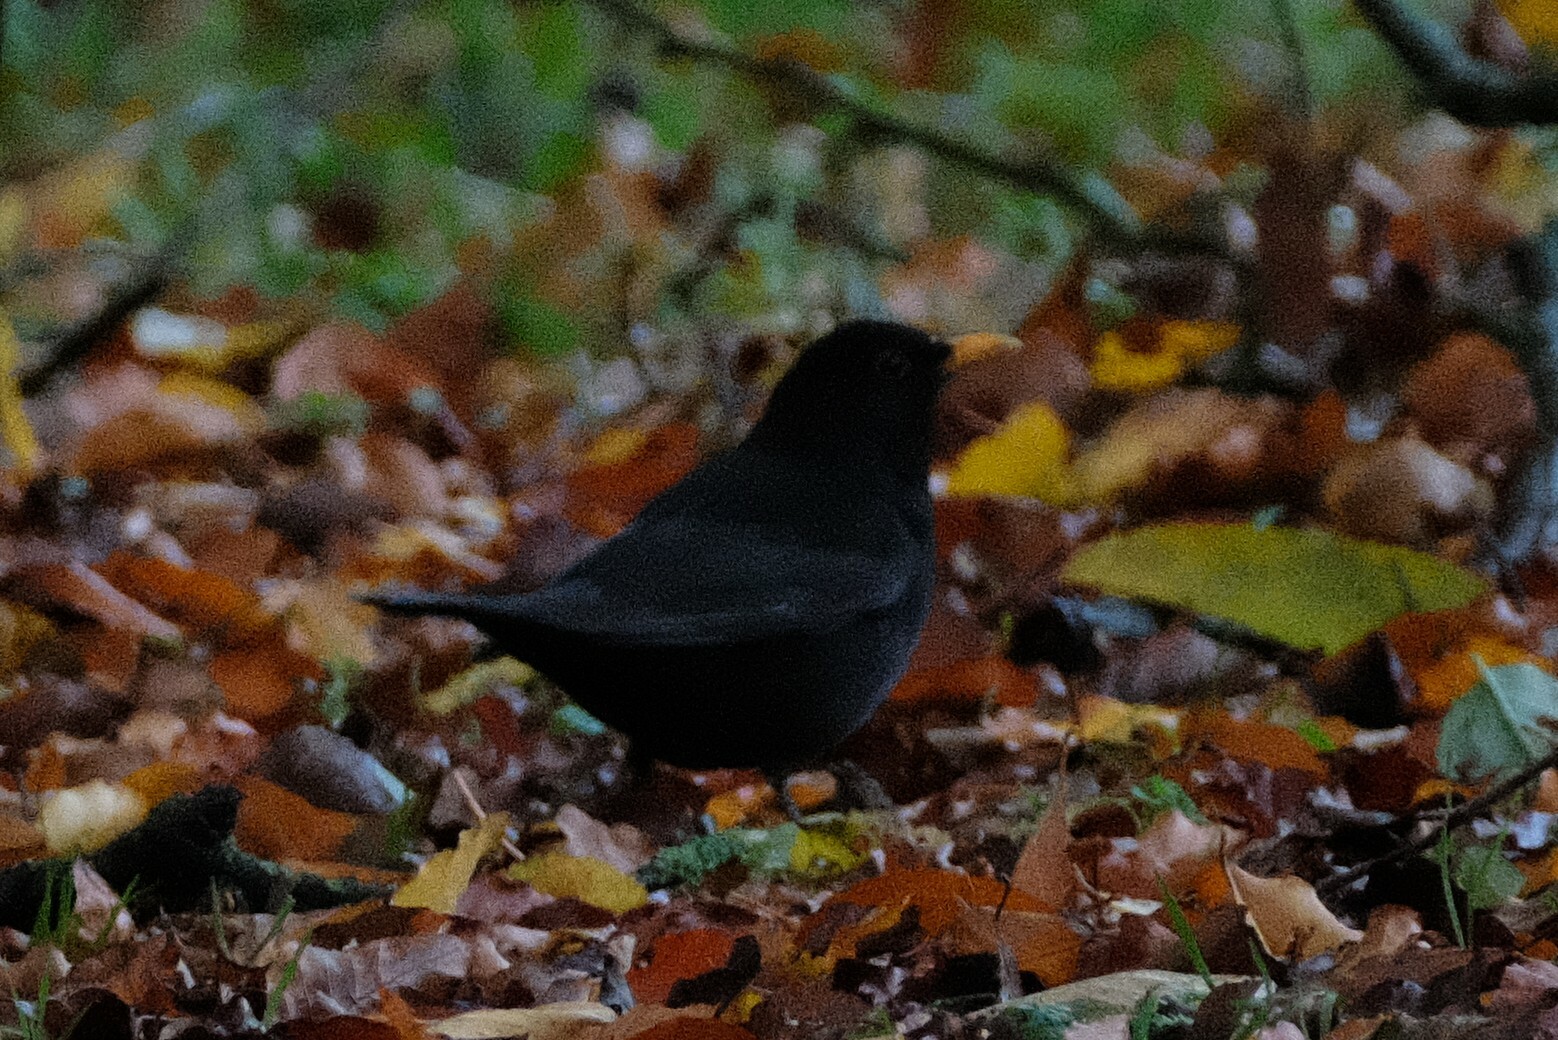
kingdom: Animalia
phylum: Chordata
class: Aves
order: Passeriformes
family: Turdidae
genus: Turdus
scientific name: Turdus merula
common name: Common blackbird
